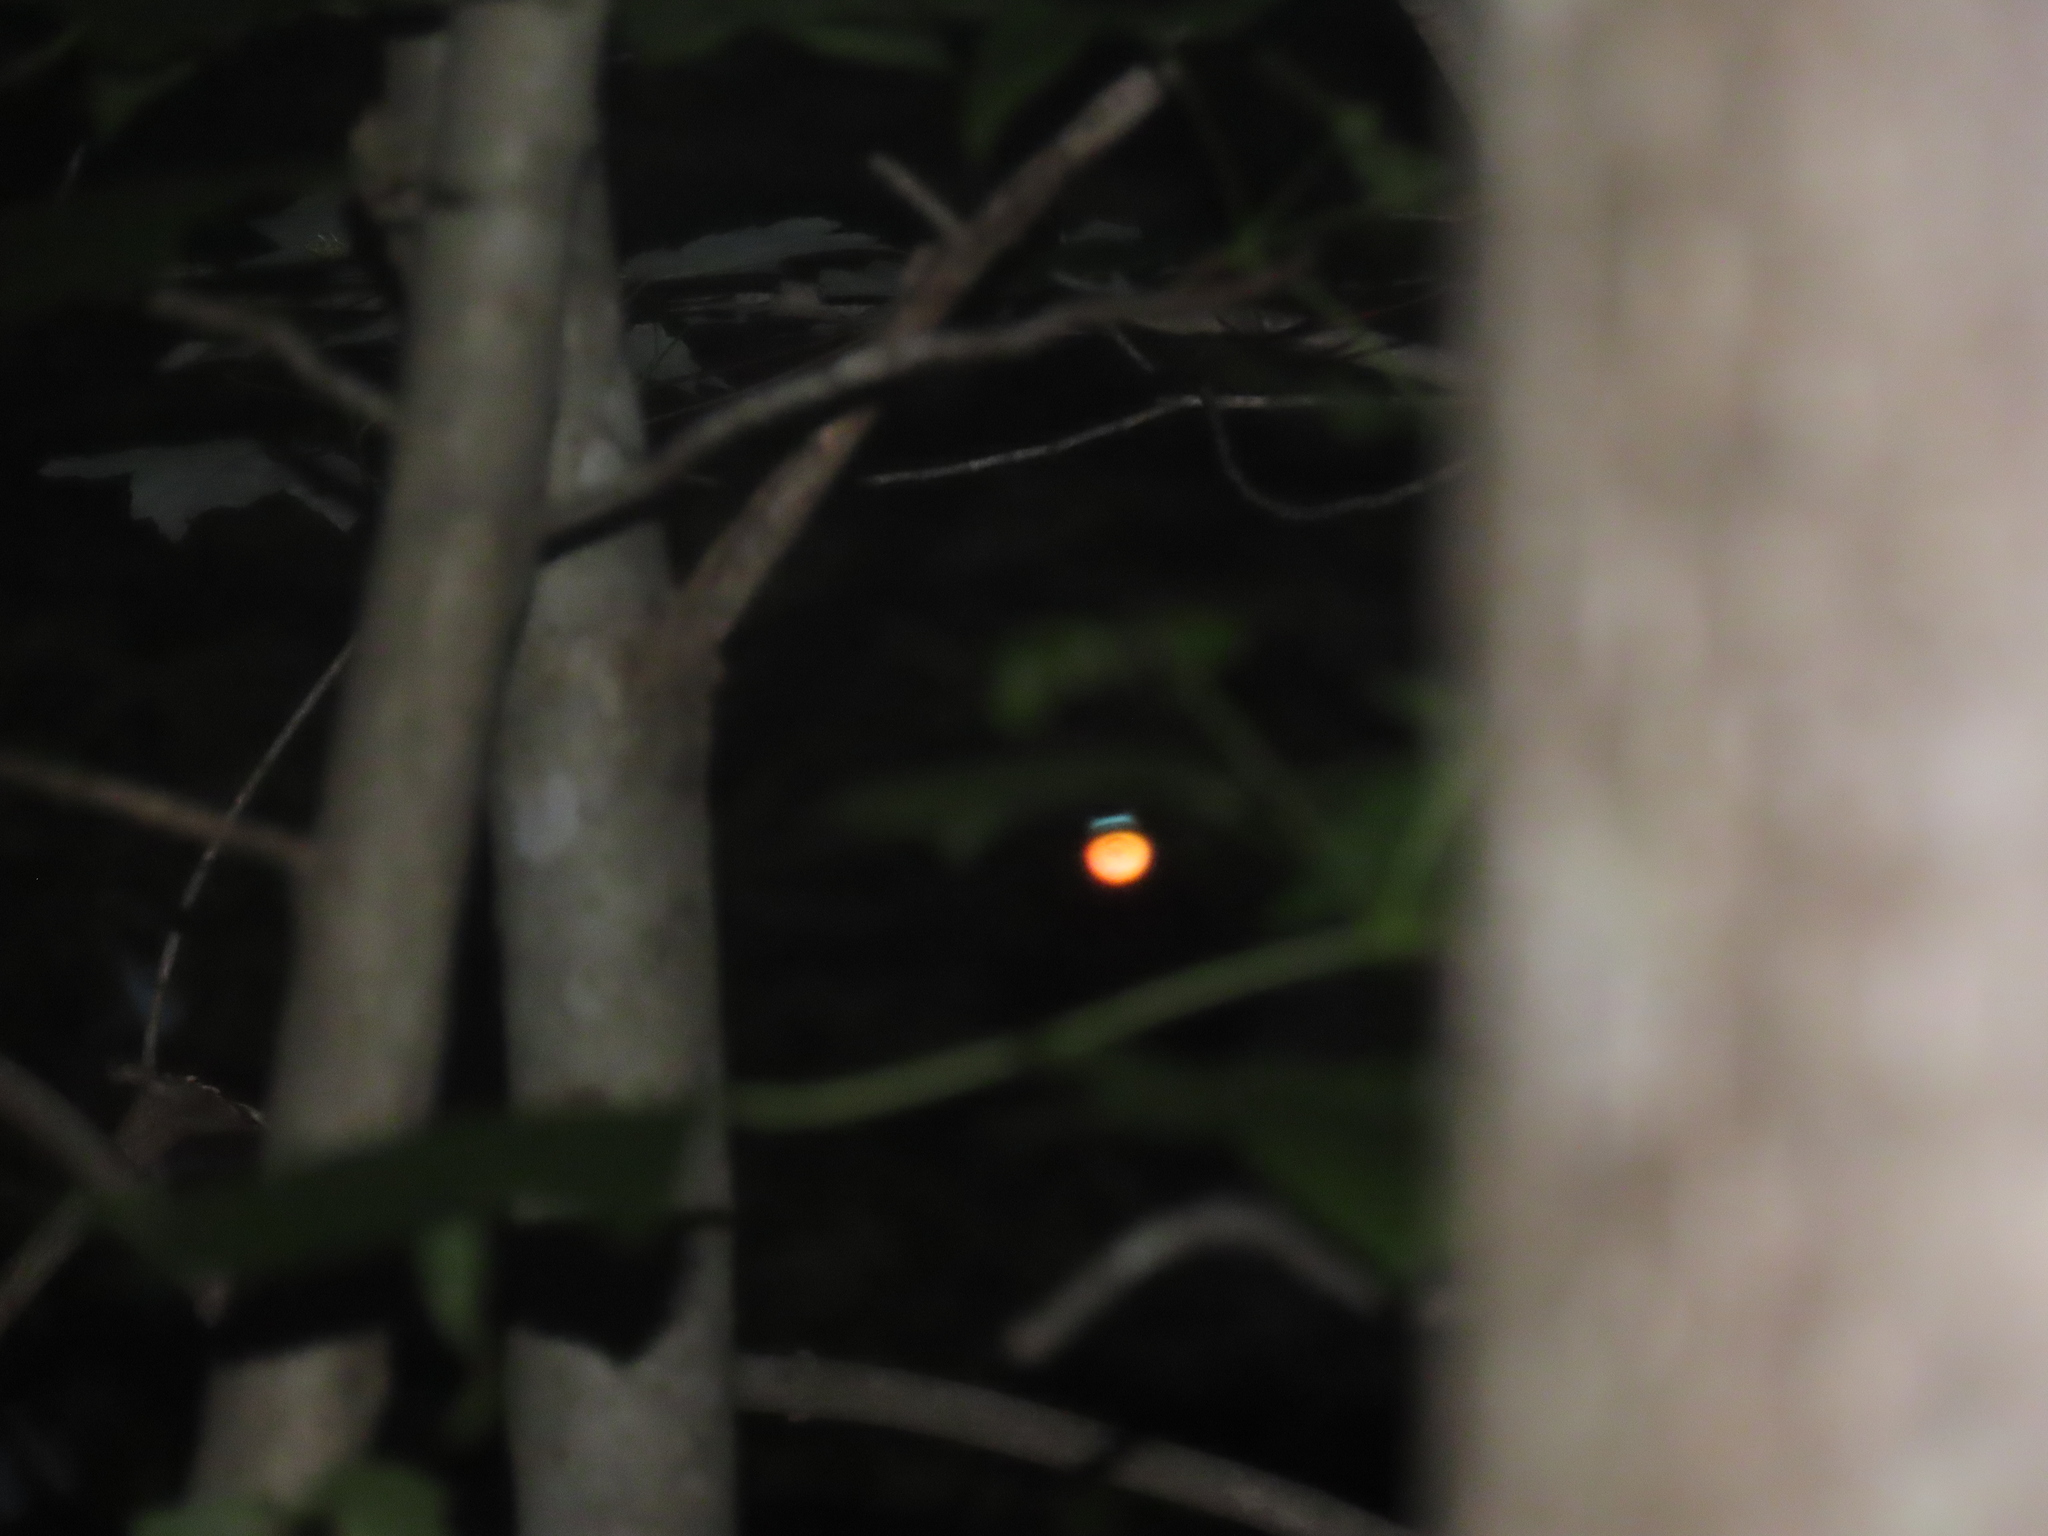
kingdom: Animalia
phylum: Chordata
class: Aves
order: Caprimulgiformes
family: Caprimulgidae
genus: Antrostomus
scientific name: Antrostomus carolinensis
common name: Chuck-will's-widow
